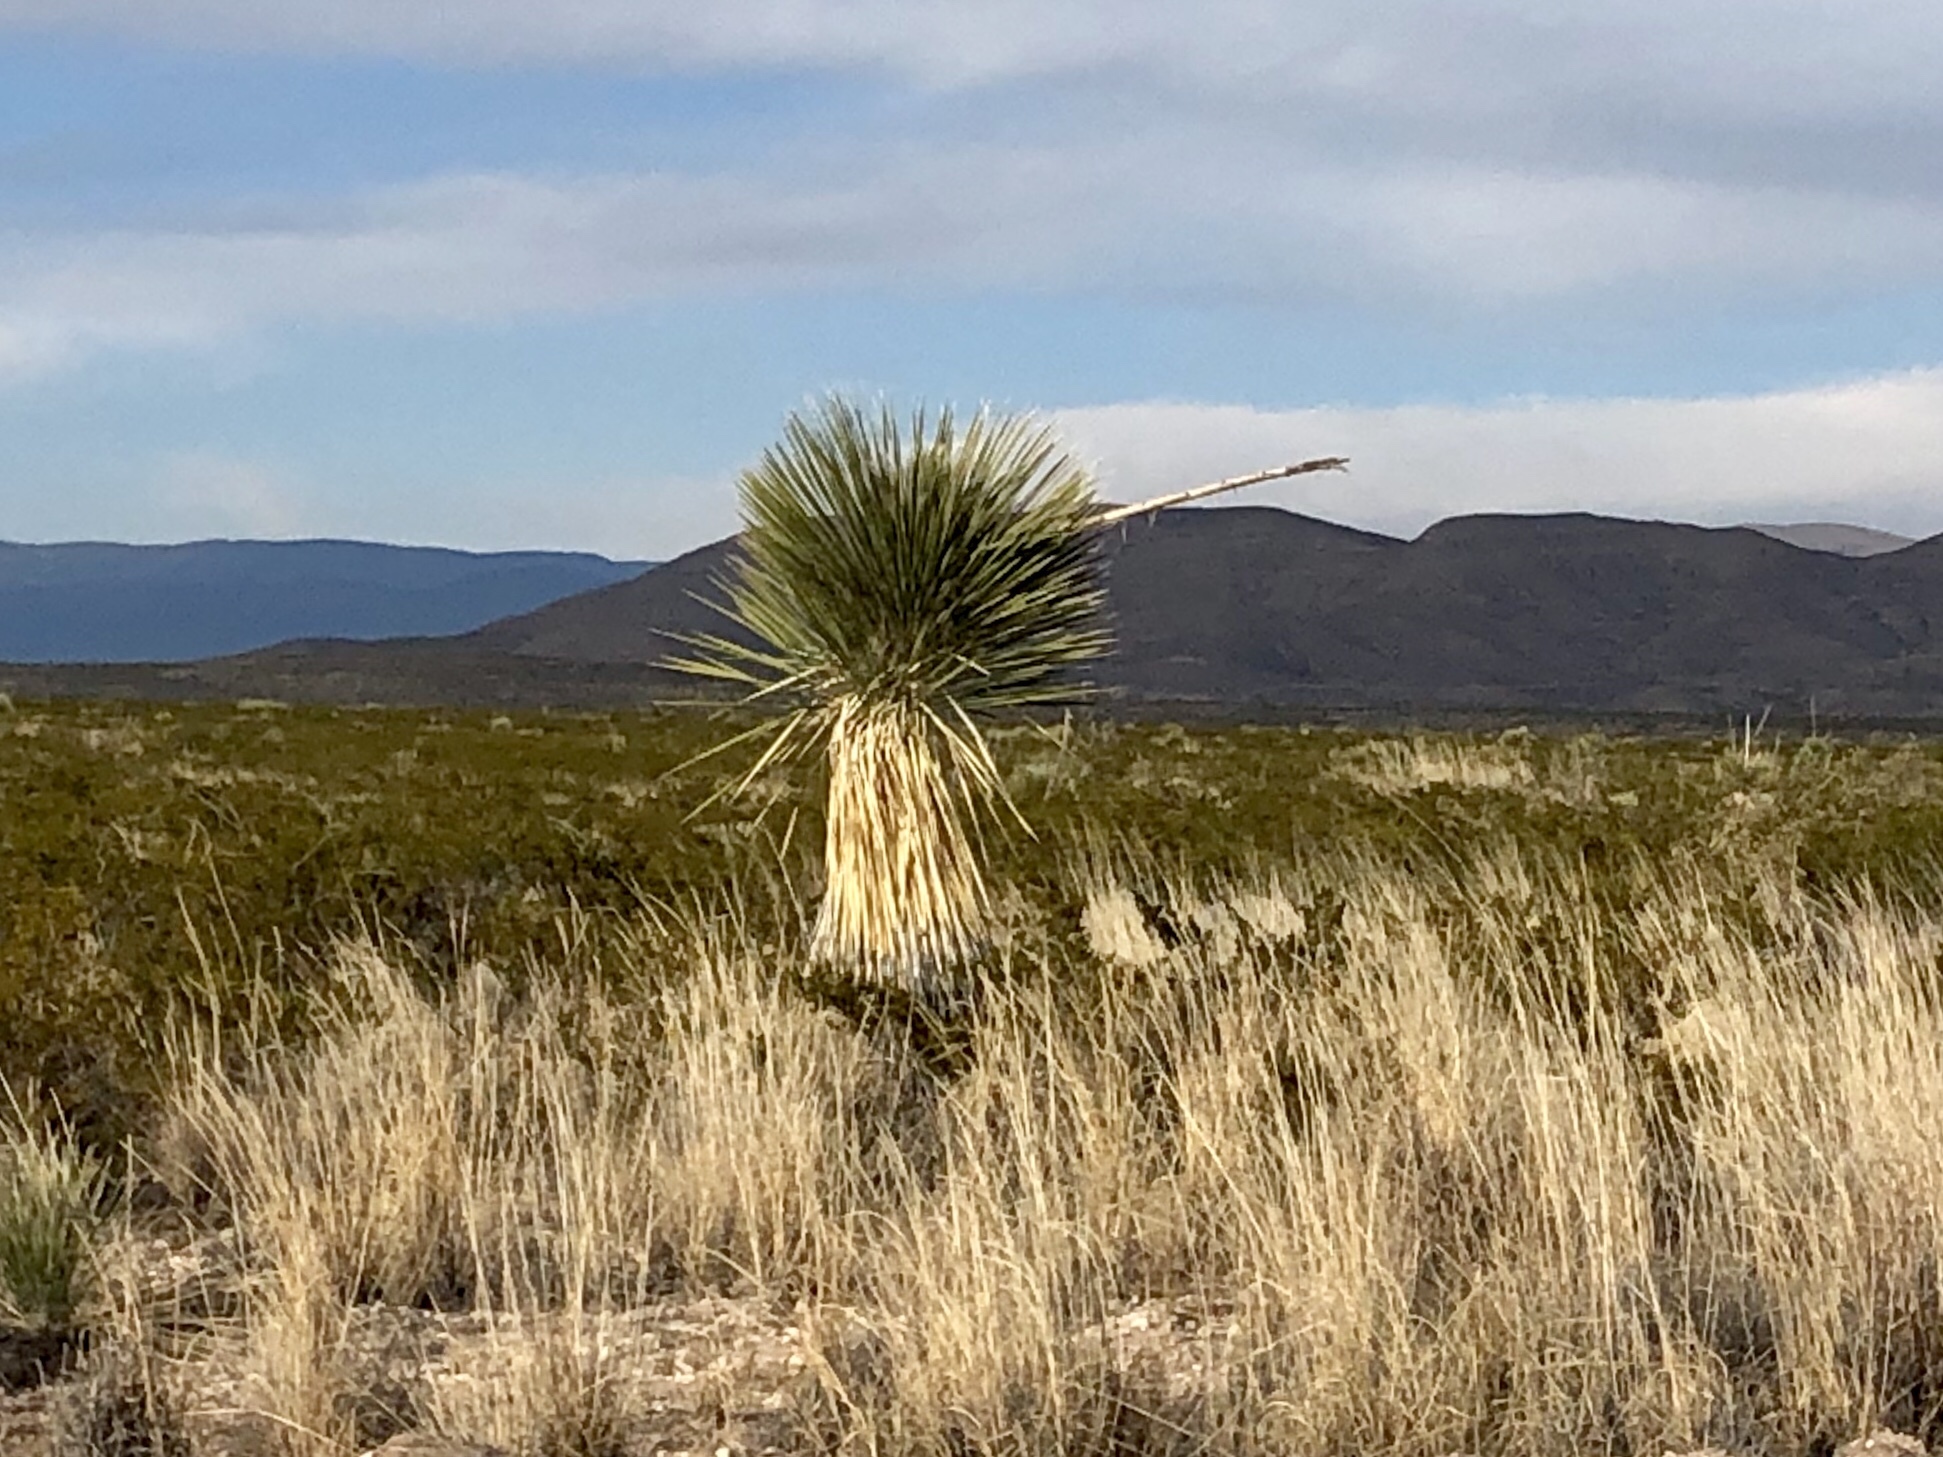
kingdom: Plantae
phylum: Tracheophyta
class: Liliopsida
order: Asparagales
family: Asparagaceae
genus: Yucca
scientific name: Yucca elata
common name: Palmella
